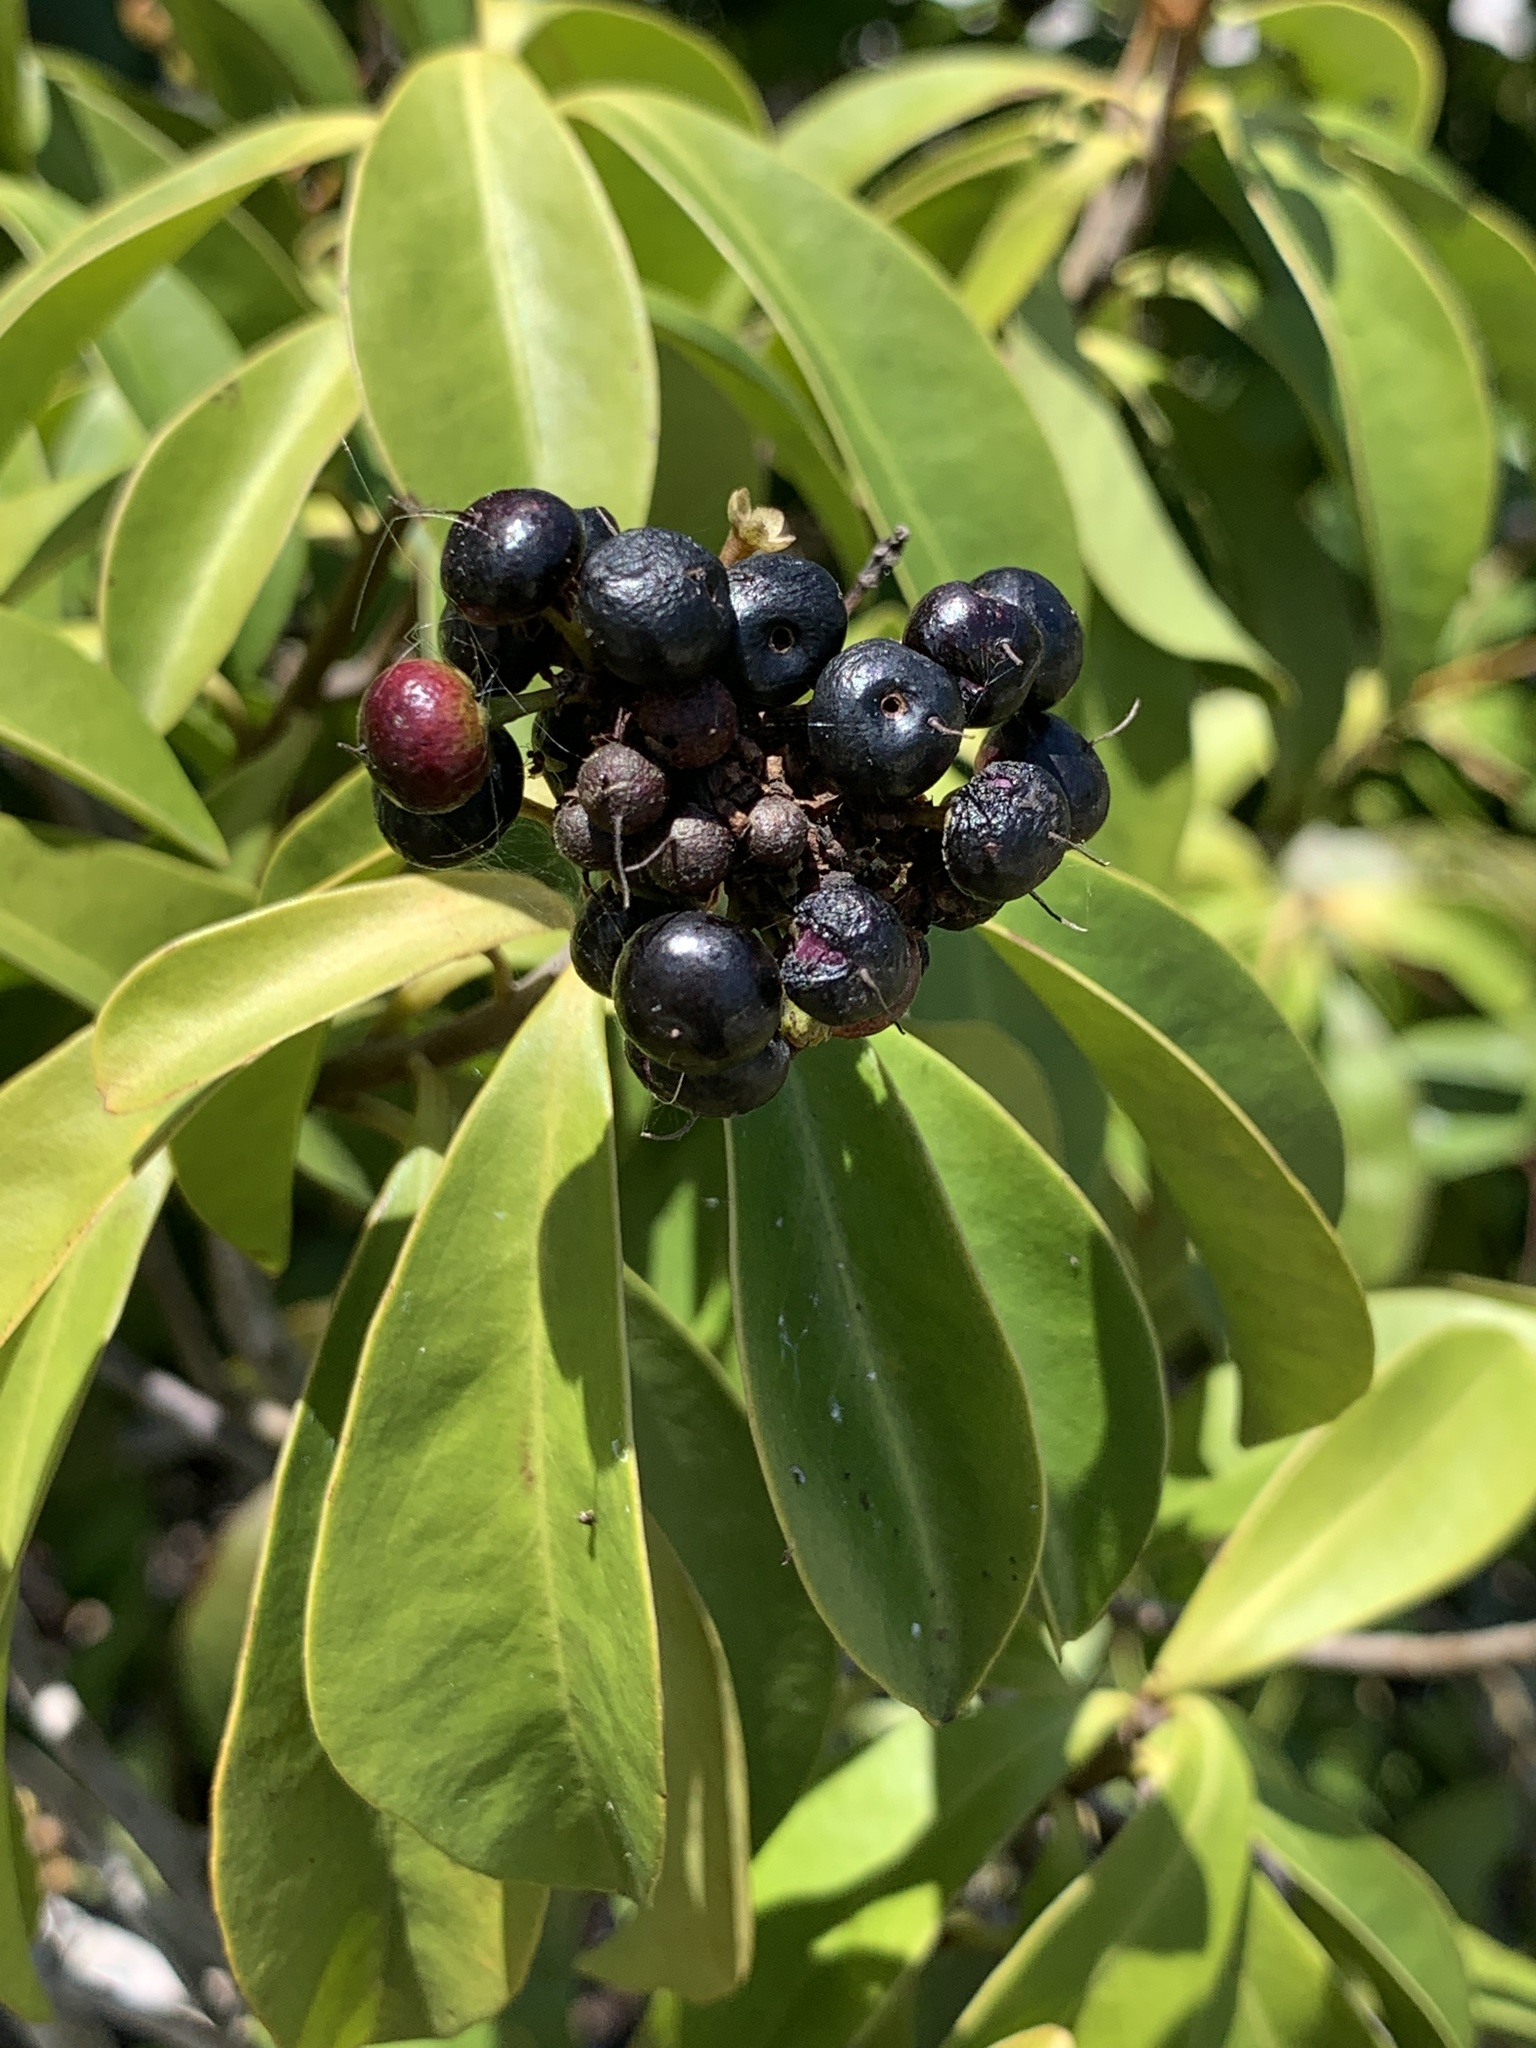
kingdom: Plantae
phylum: Tracheophyta
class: Magnoliopsida
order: Ericales
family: Primulaceae
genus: Ardisia
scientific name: Ardisia escallonioides
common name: Island marlberry
